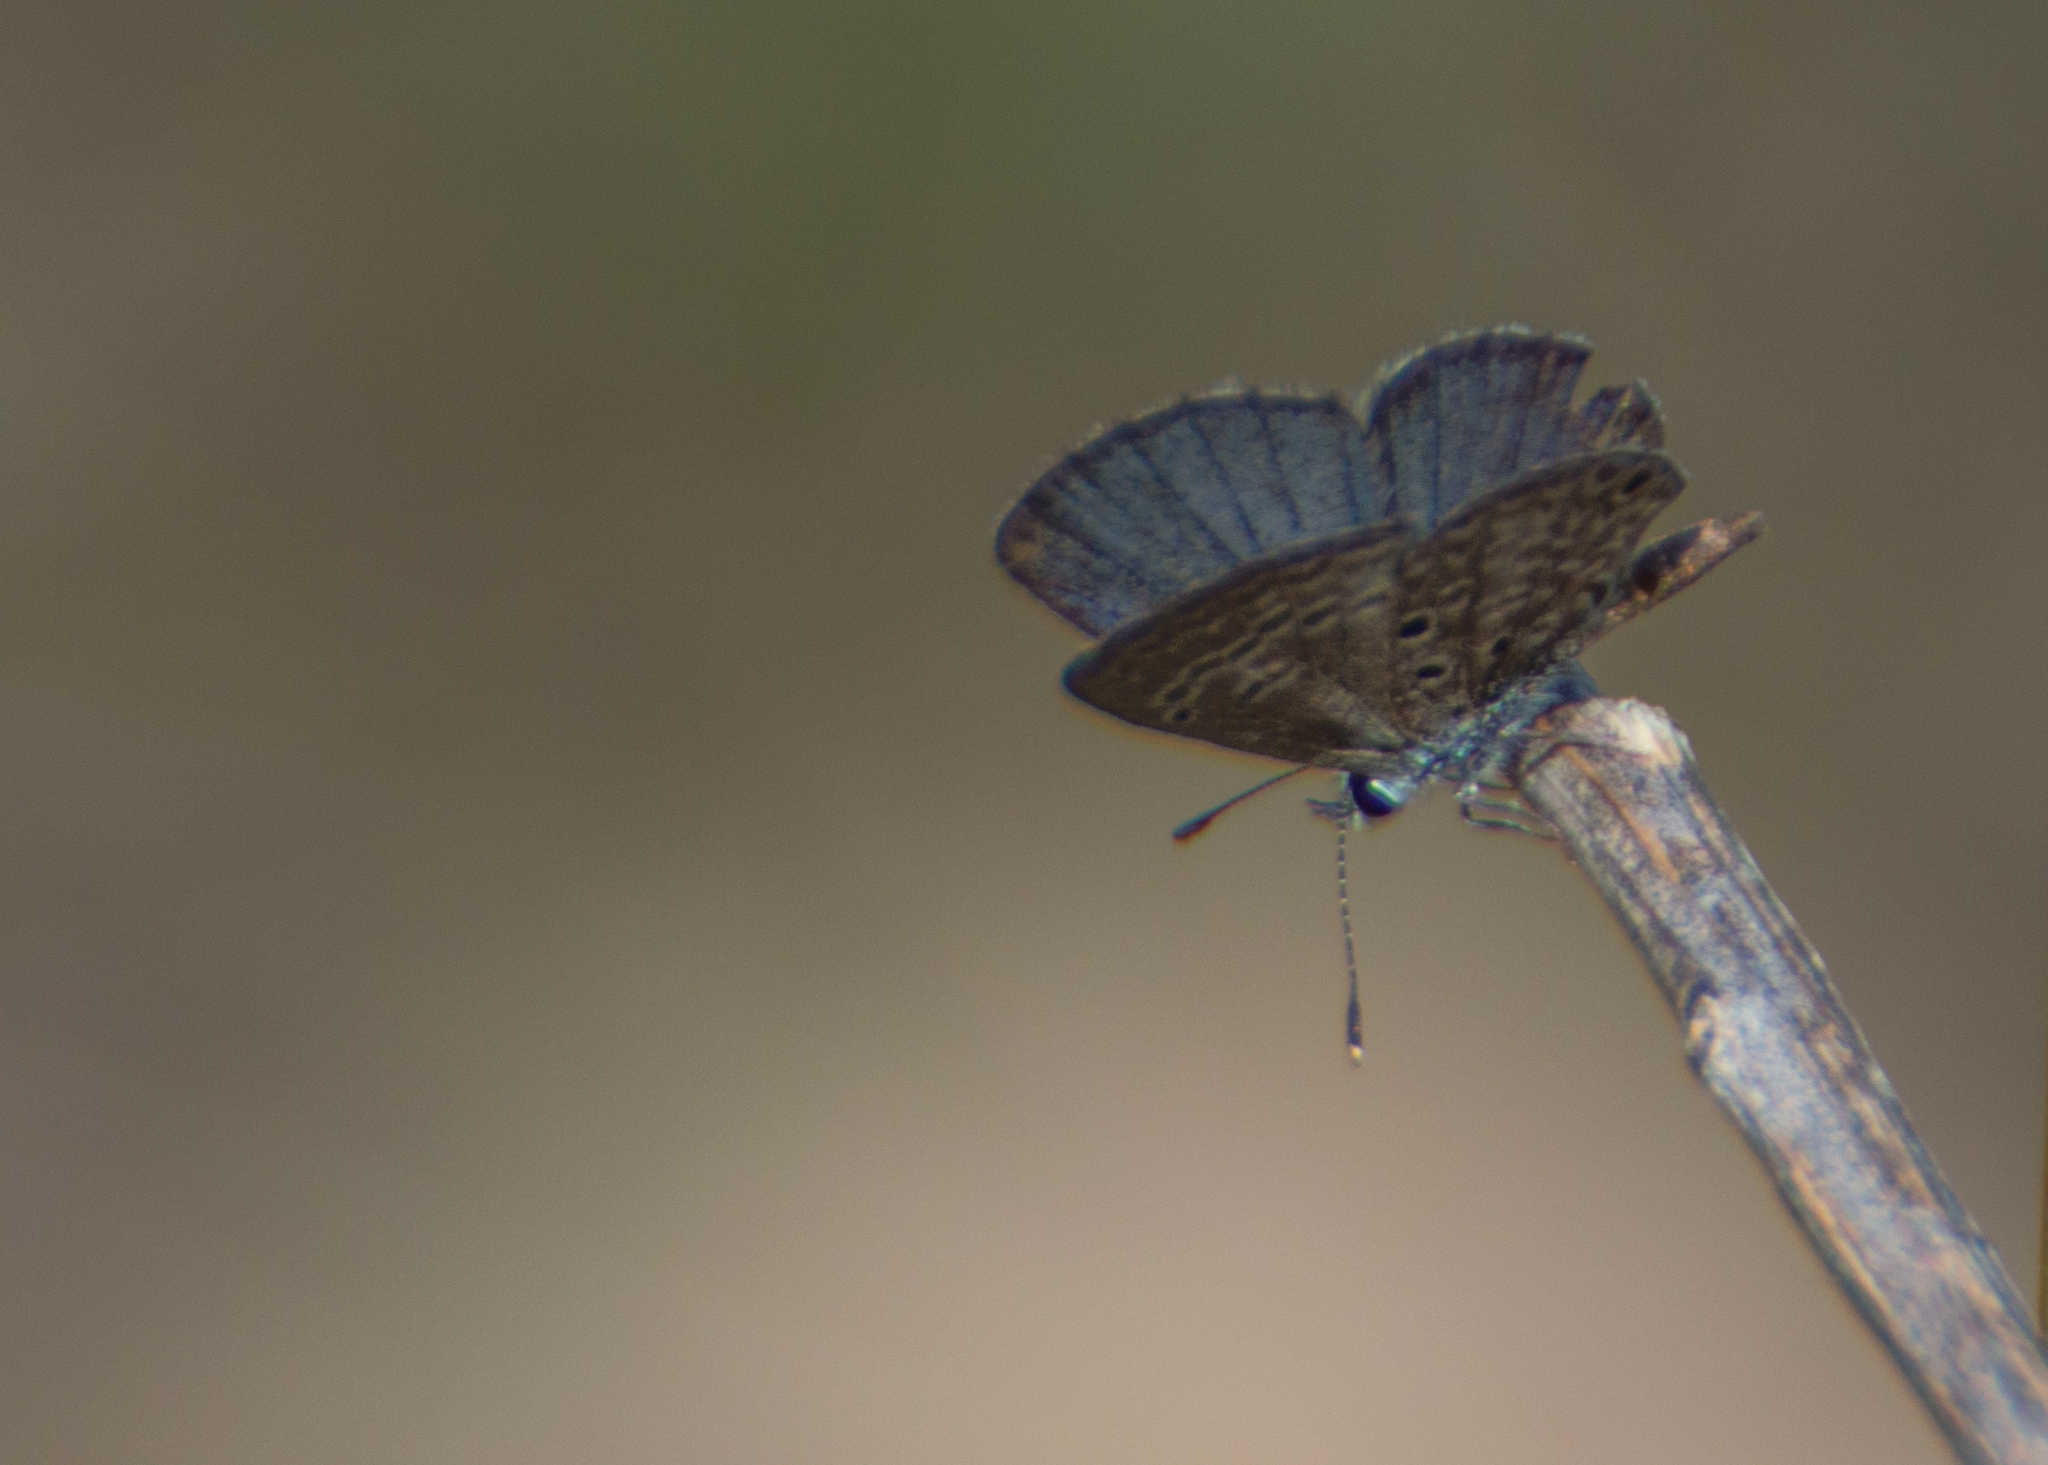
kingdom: Animalia
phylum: Arthropoda
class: Insecta
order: Lepidoptera
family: Lycaenidae
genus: Hemiargus
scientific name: Hemiargus hanno
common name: Common blue
